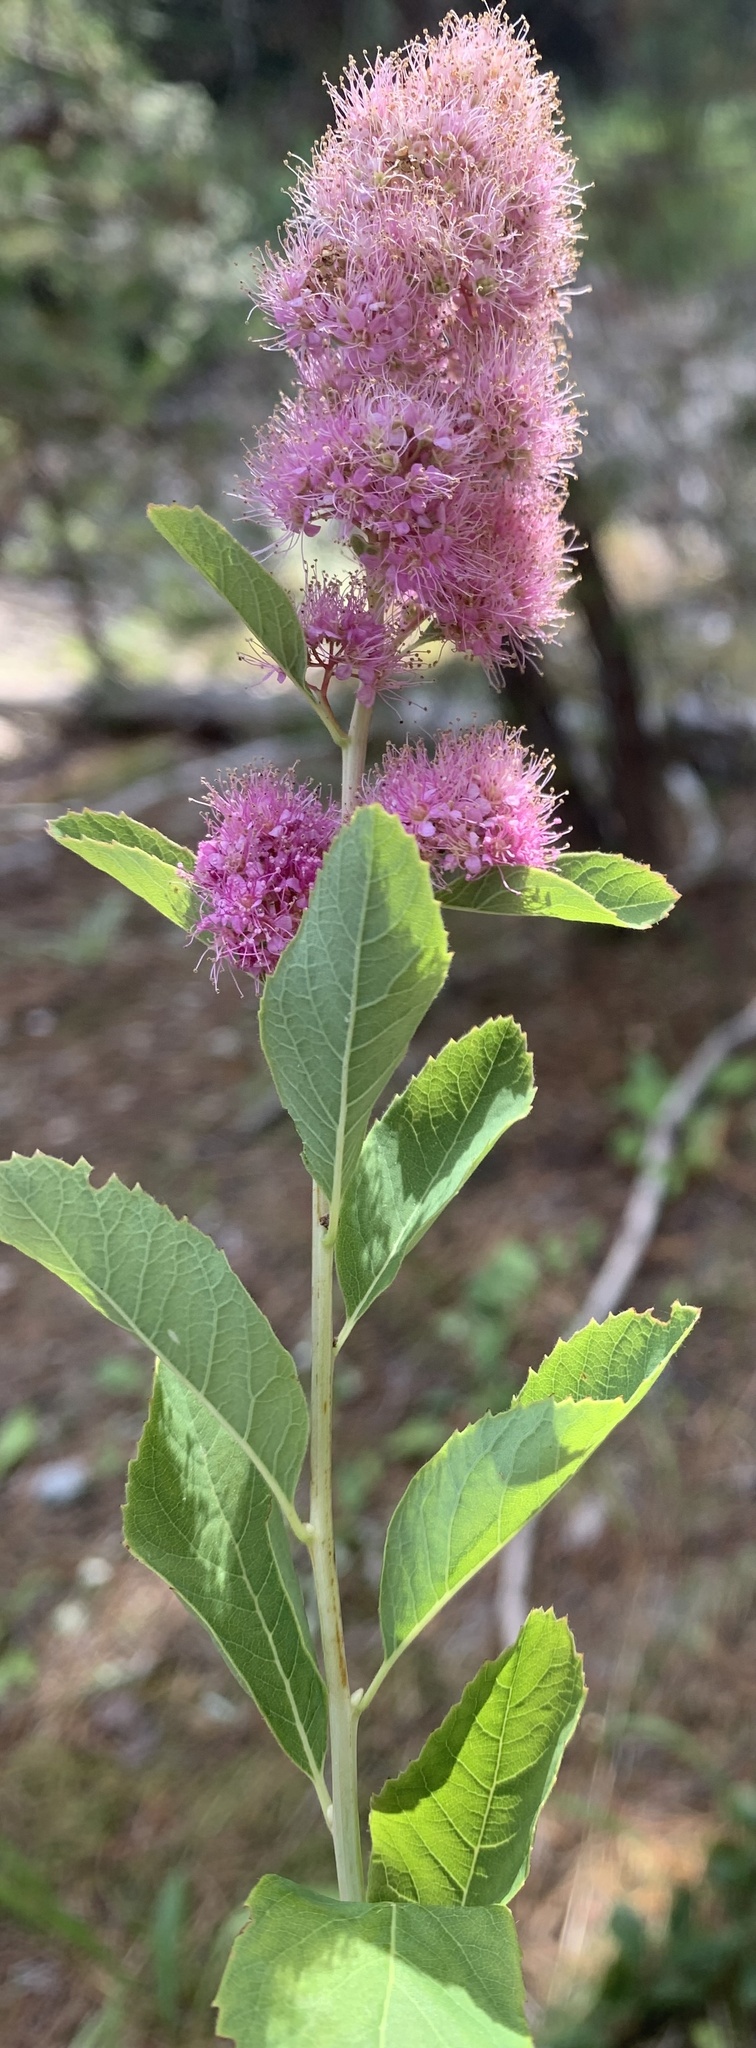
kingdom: Plantae
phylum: Tracheophyta
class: Magnoliopsida
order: Rosales
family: Rosaceae
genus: Spiraea
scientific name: Spiraea douglasii
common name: Steeplebush
